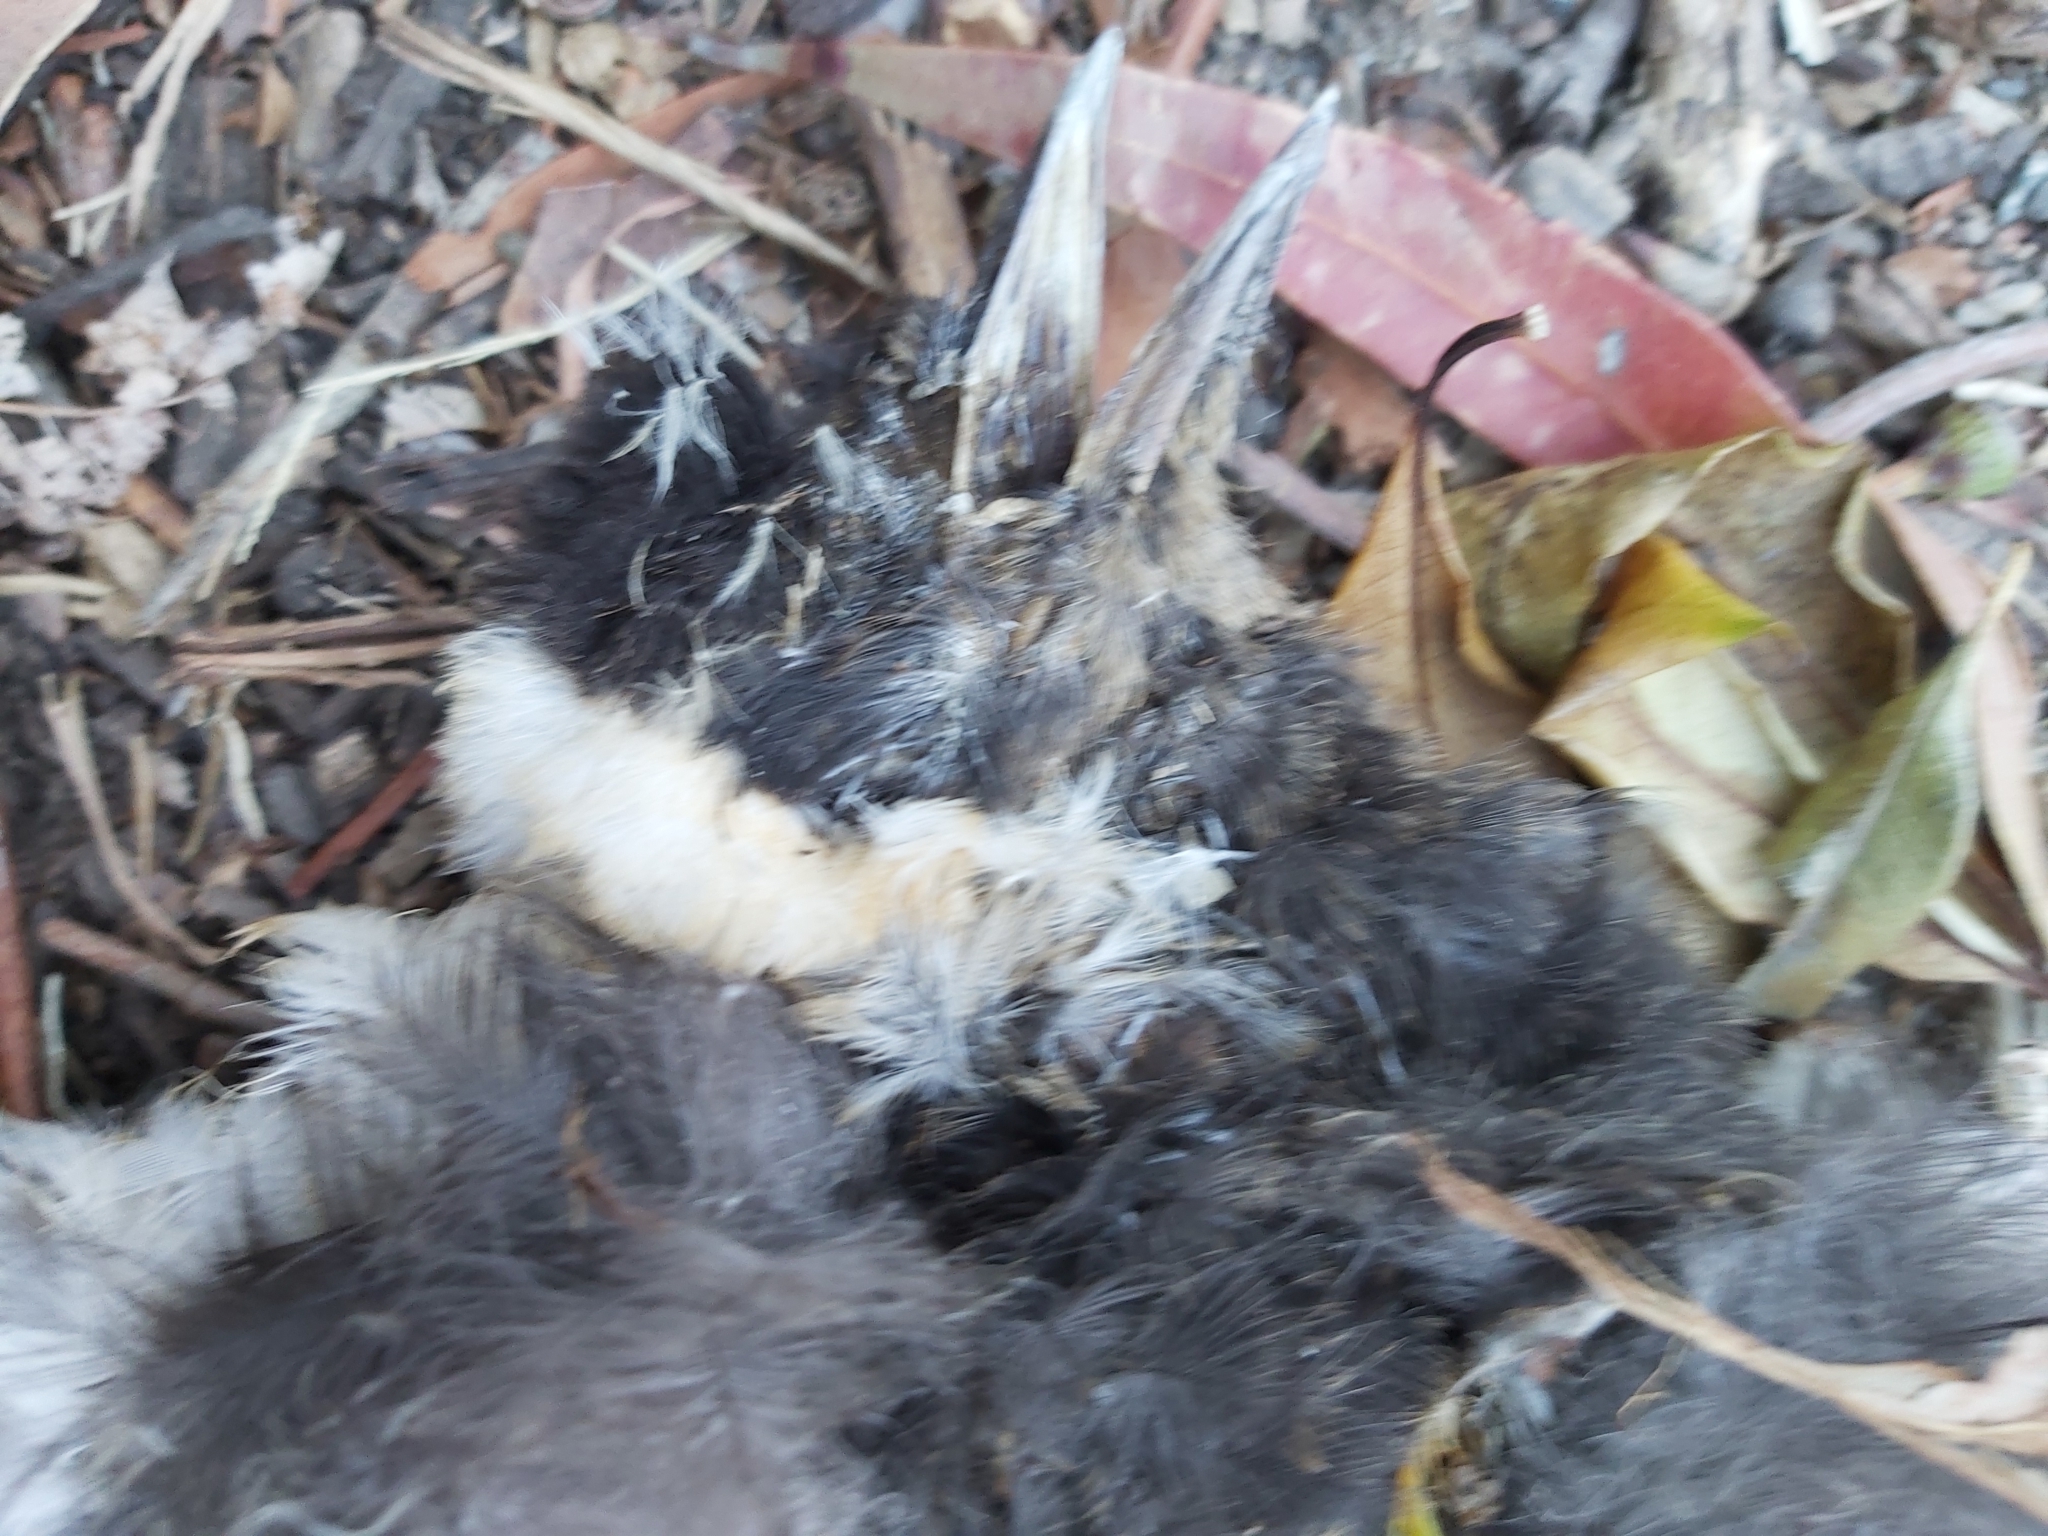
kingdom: Animalia
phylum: Chordata
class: Aves
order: Passeriformes
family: Cracticidae
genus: Gymnorhina
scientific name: Gymnorhina tibicen
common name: Australian magpie
